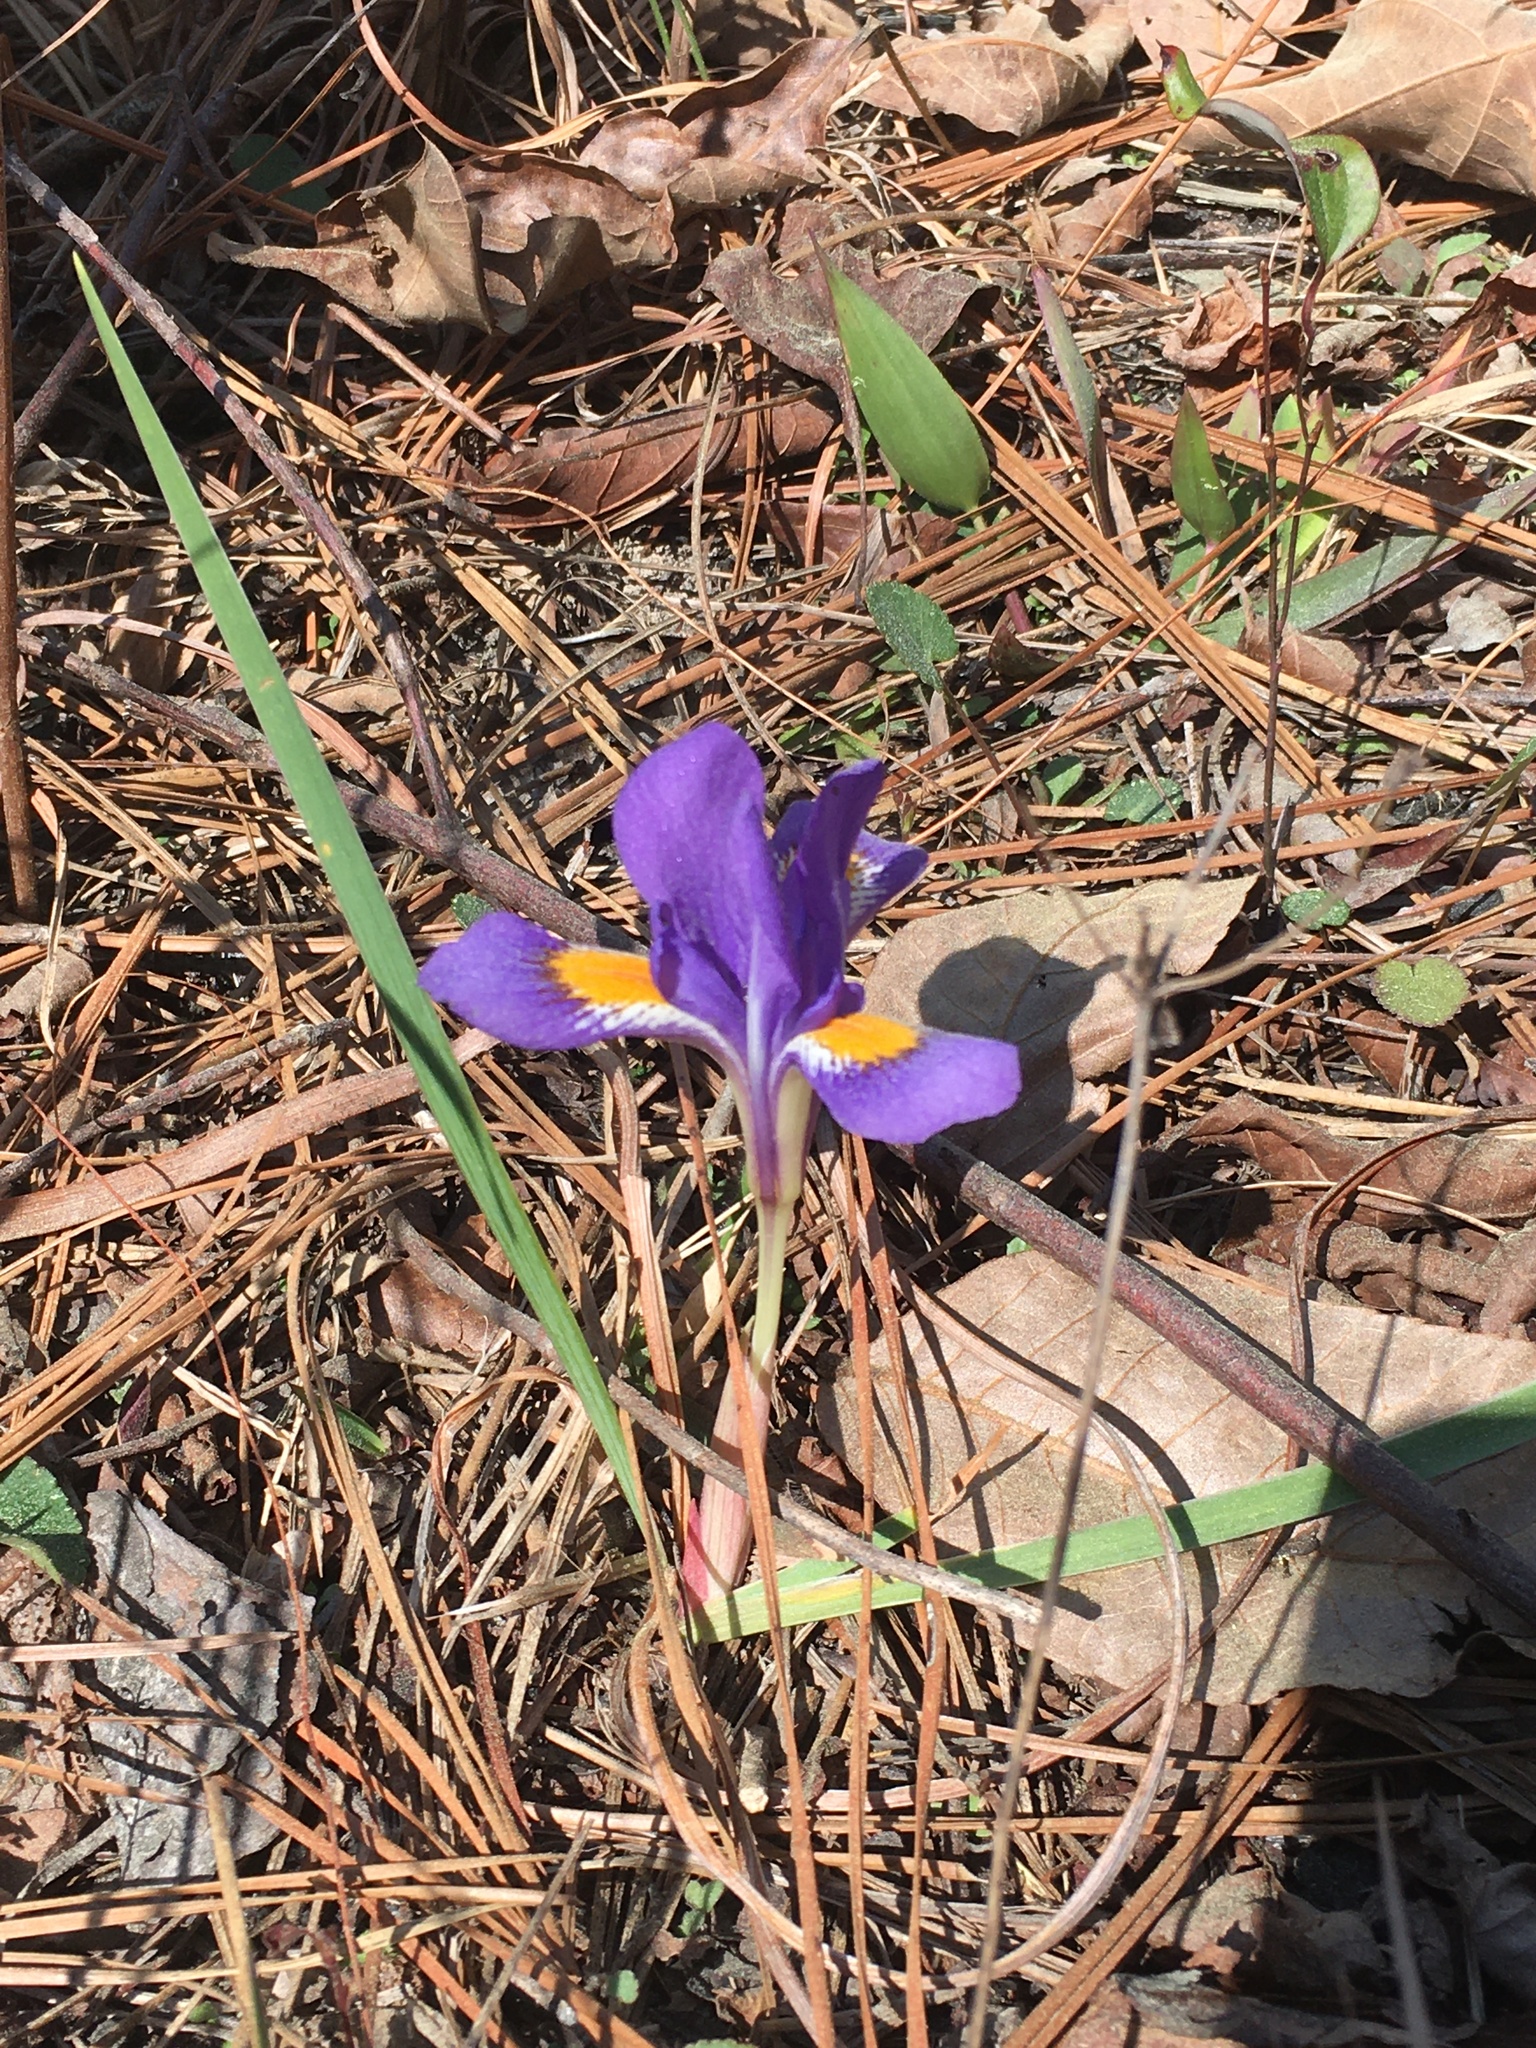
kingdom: Plantae
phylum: Tracheophyta
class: Liliopsida
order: Asparagales
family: Iridaceae
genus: Iris
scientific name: Iris verna
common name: Dwarf iris
